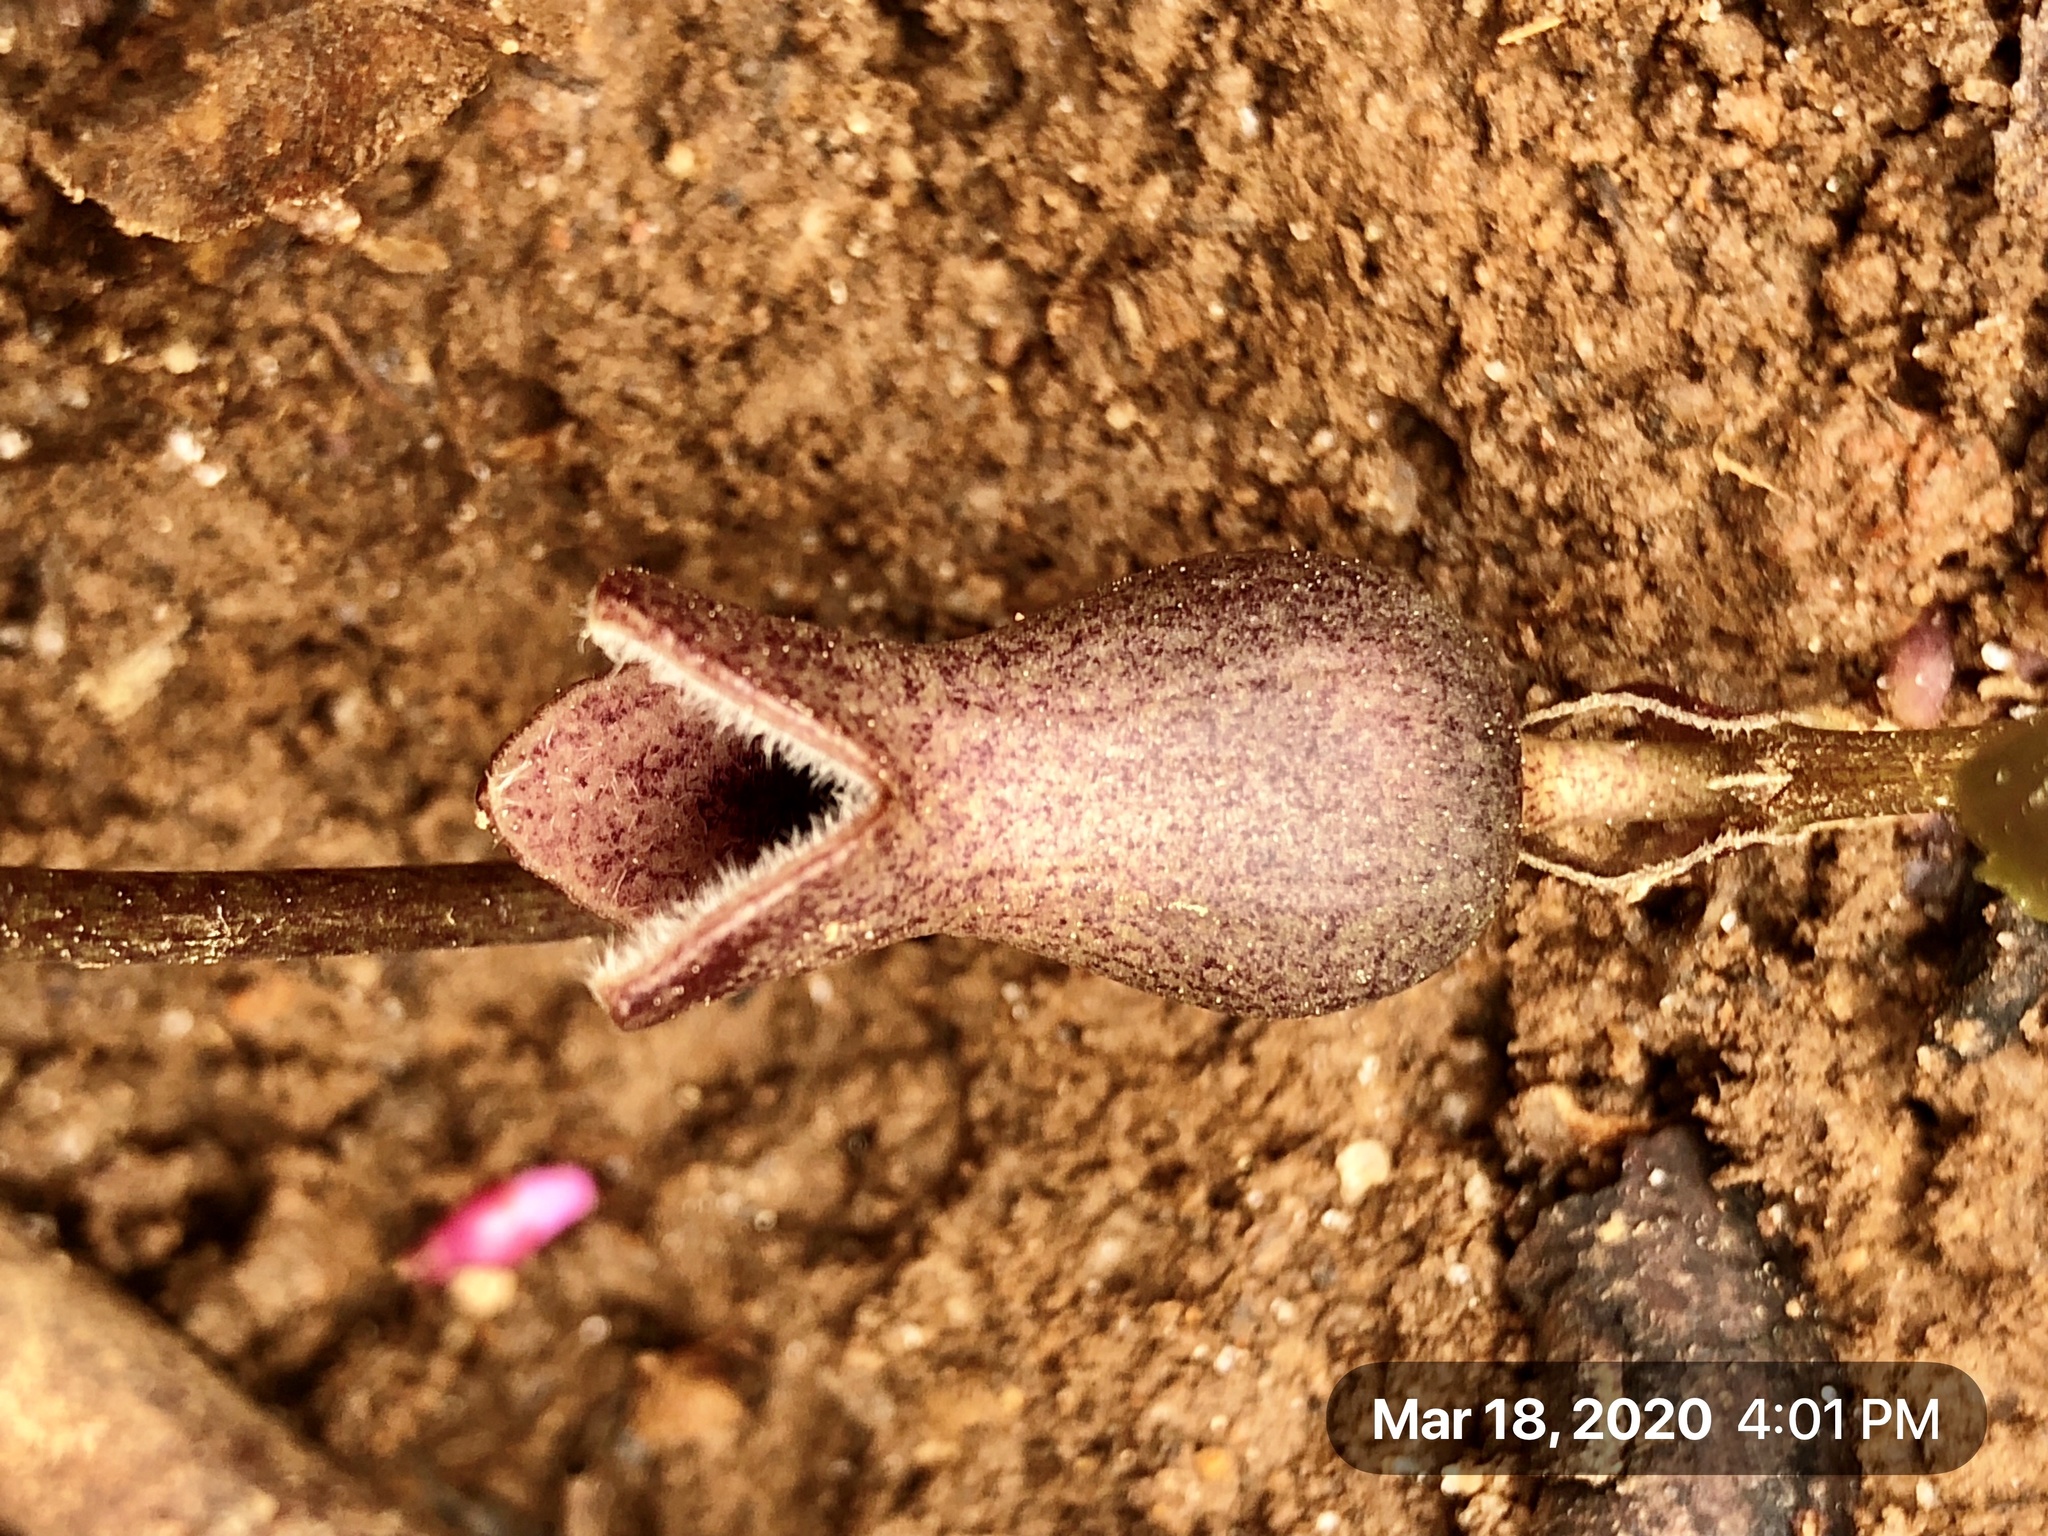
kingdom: Plantae
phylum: Tracheophyta
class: Magnoliopsida
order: Piperales
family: Aristolochiaceae
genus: Hexastylis
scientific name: Hexastylis arifolia
